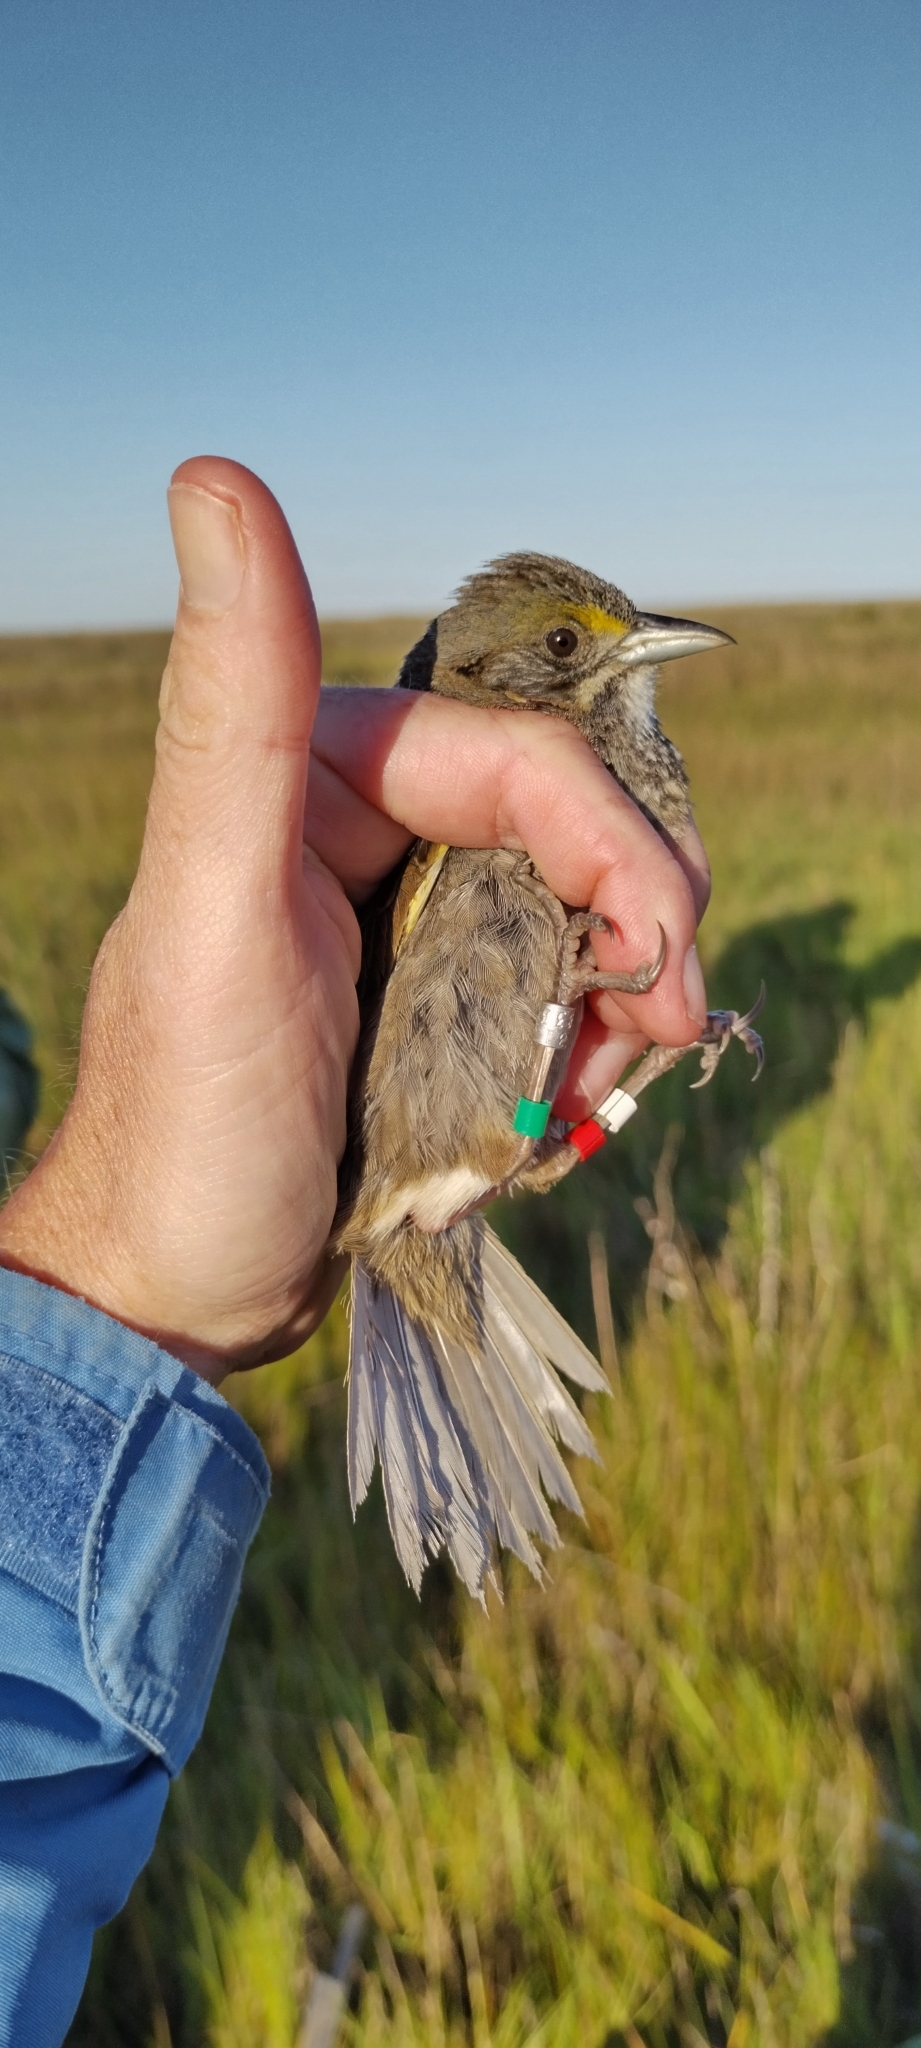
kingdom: Animalia
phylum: Chordata
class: Aves
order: Passeriformes
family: Passerellidae
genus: Ammospiza
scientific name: Ammospiza maritima
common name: Seaside sparrow
